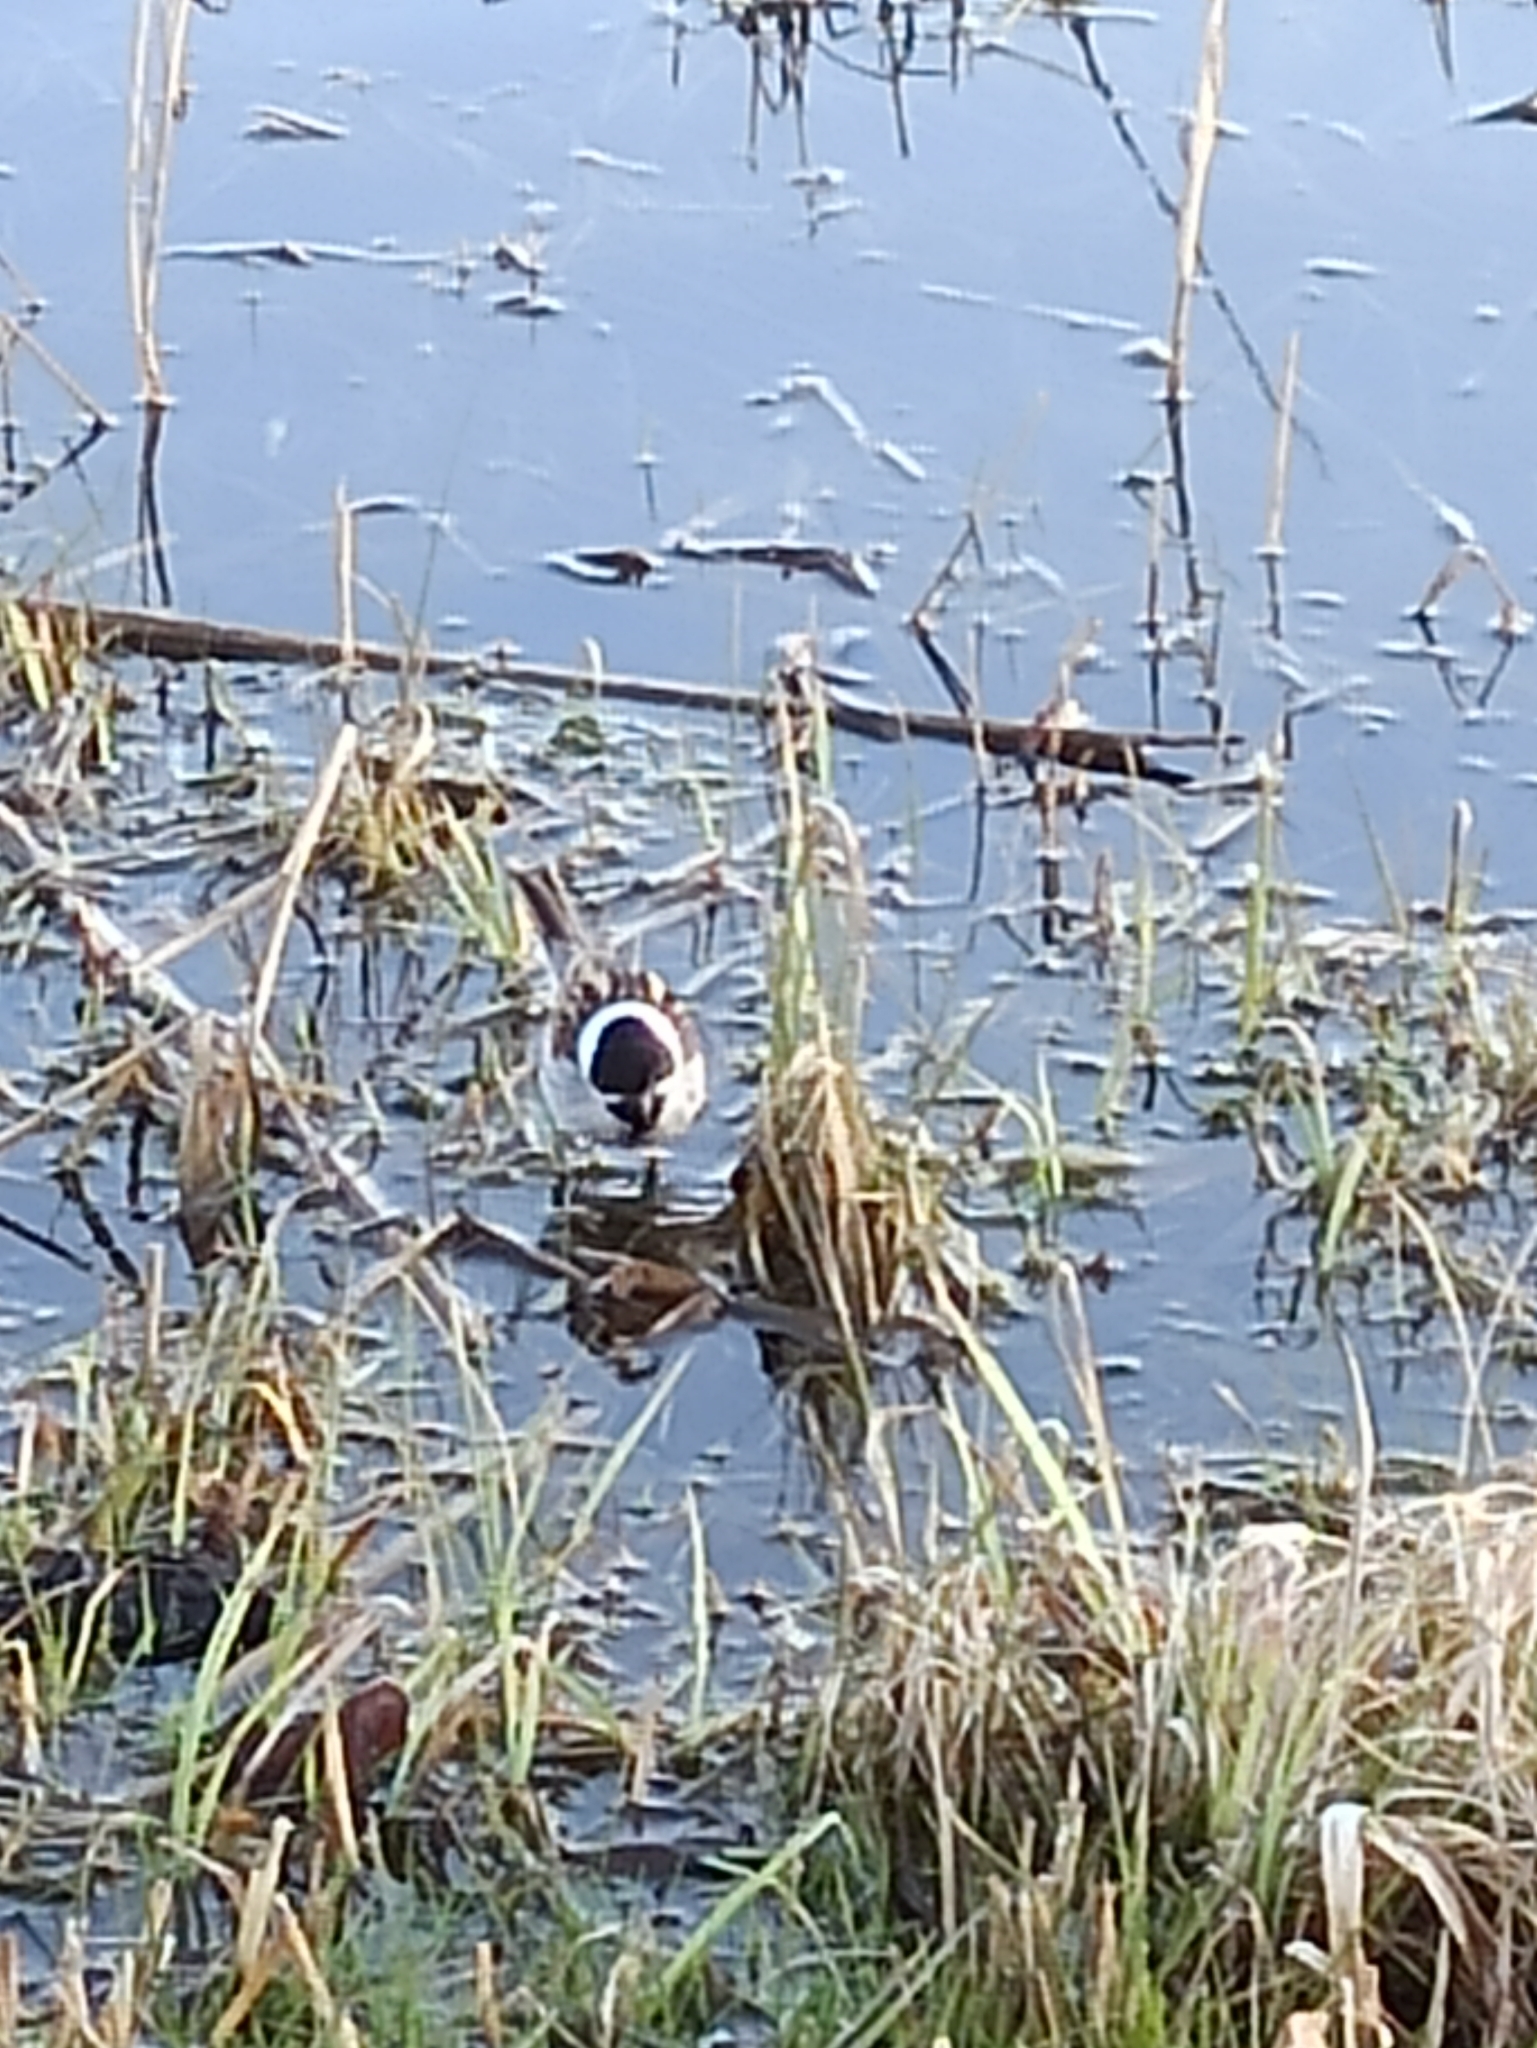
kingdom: Animalia
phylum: Chordata
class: Aves
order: Passeriformes
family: Emberizidae
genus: Emberiza
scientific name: Emberiza schoeniclus
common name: Reed bunting
